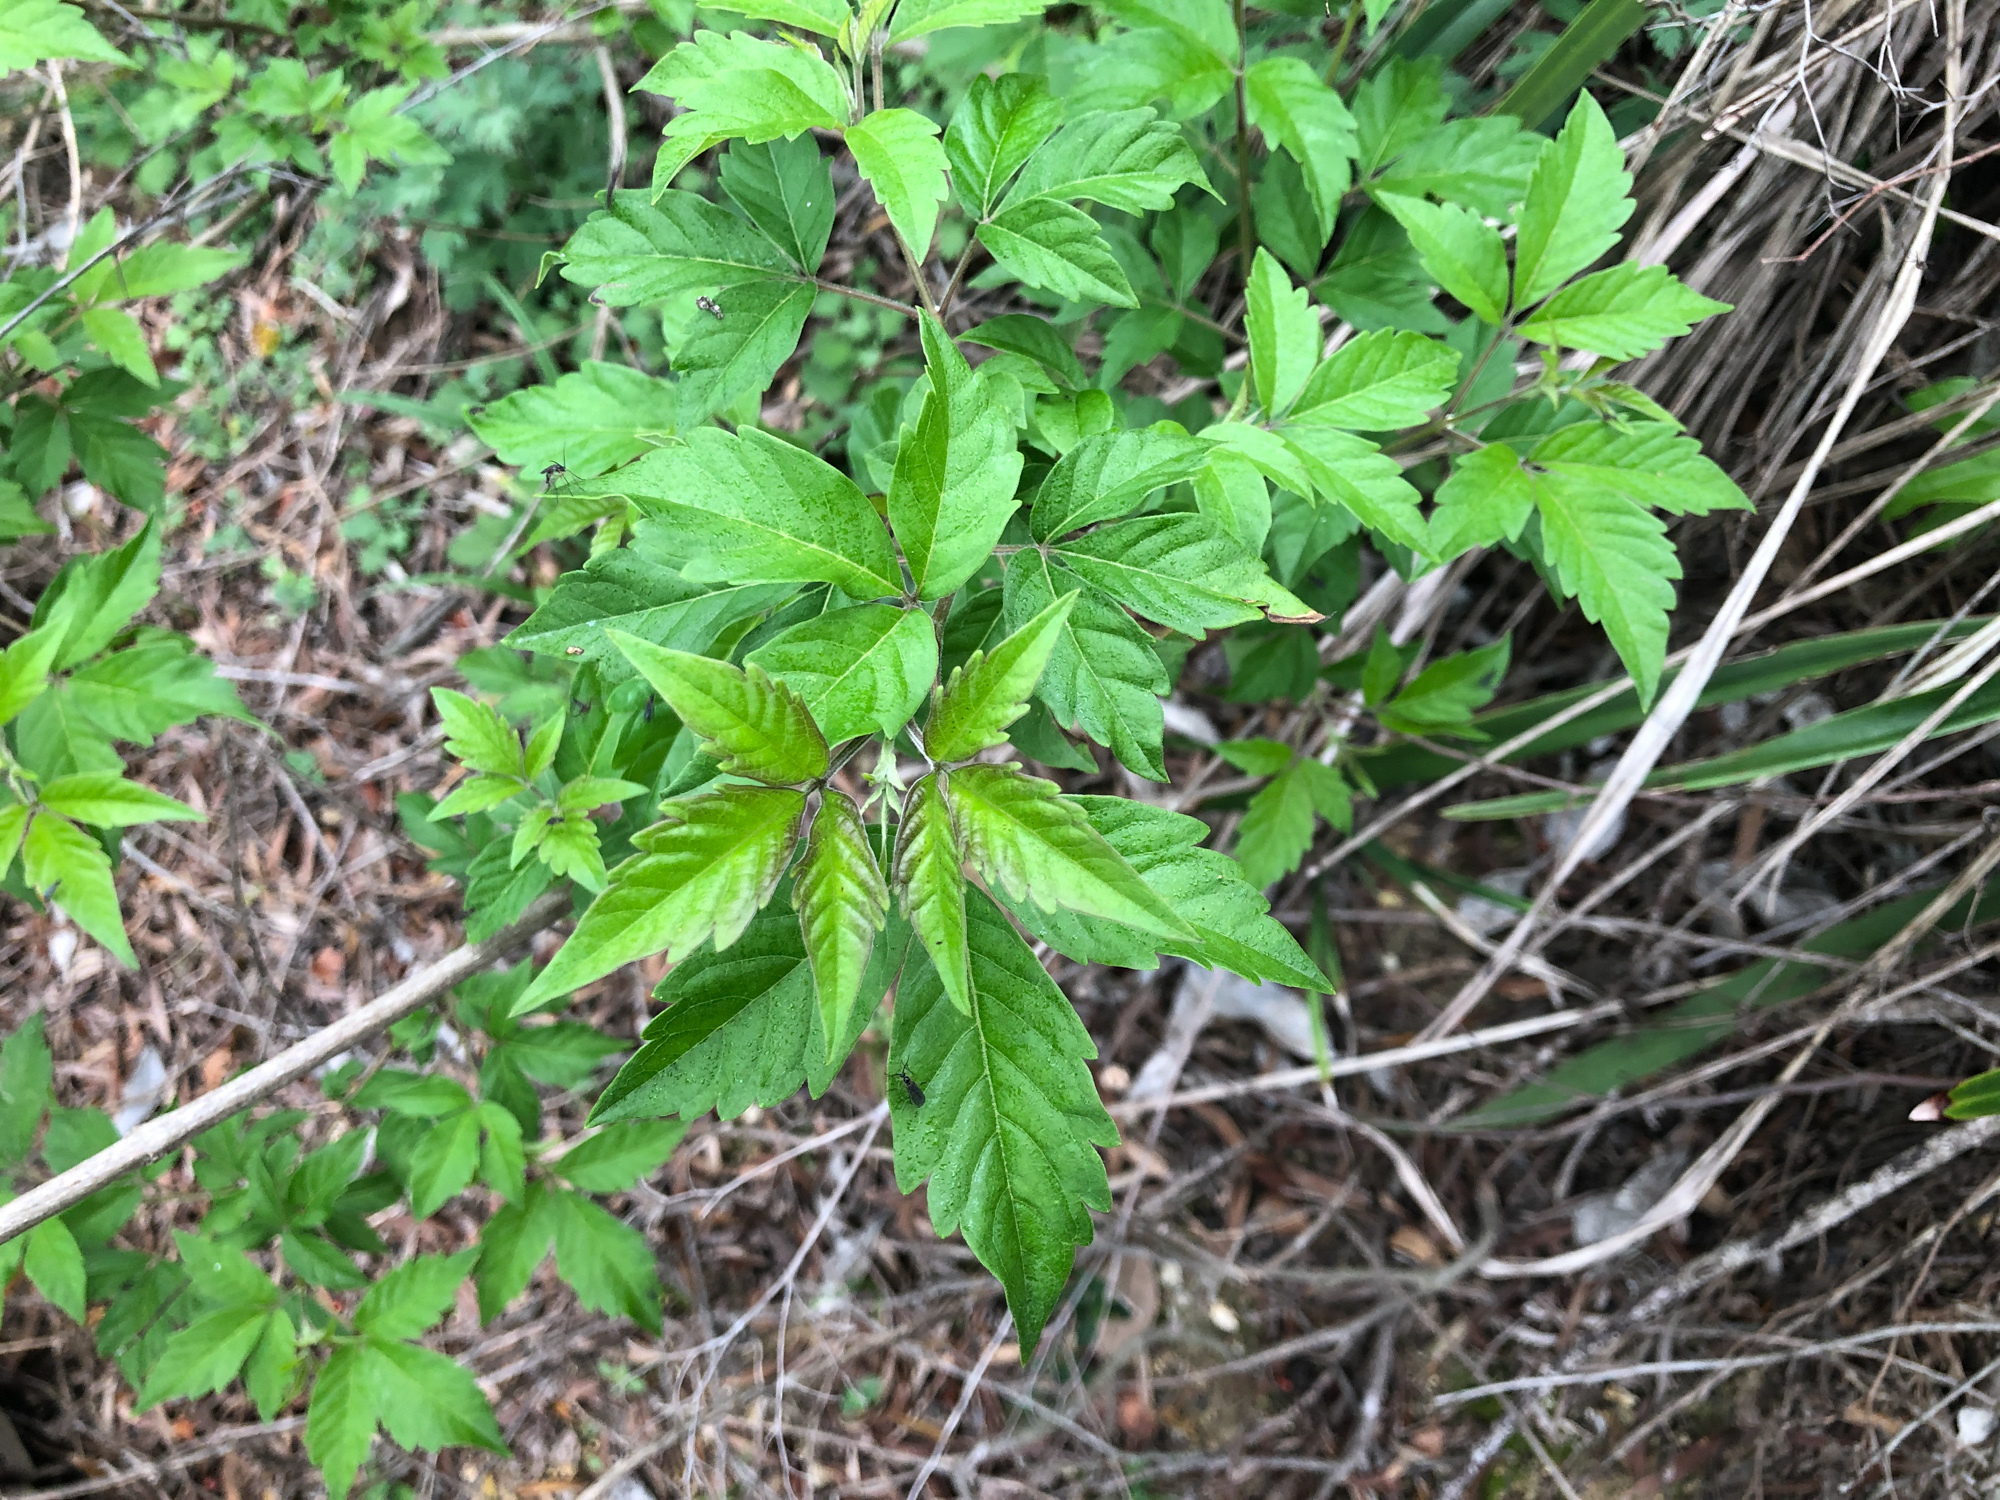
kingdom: Plantae
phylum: Tracheophyta
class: Magnoliopsida
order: Lamiales
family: Lamiaceae
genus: Vitex
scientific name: Vitex negundo
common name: Chinese chastetree
